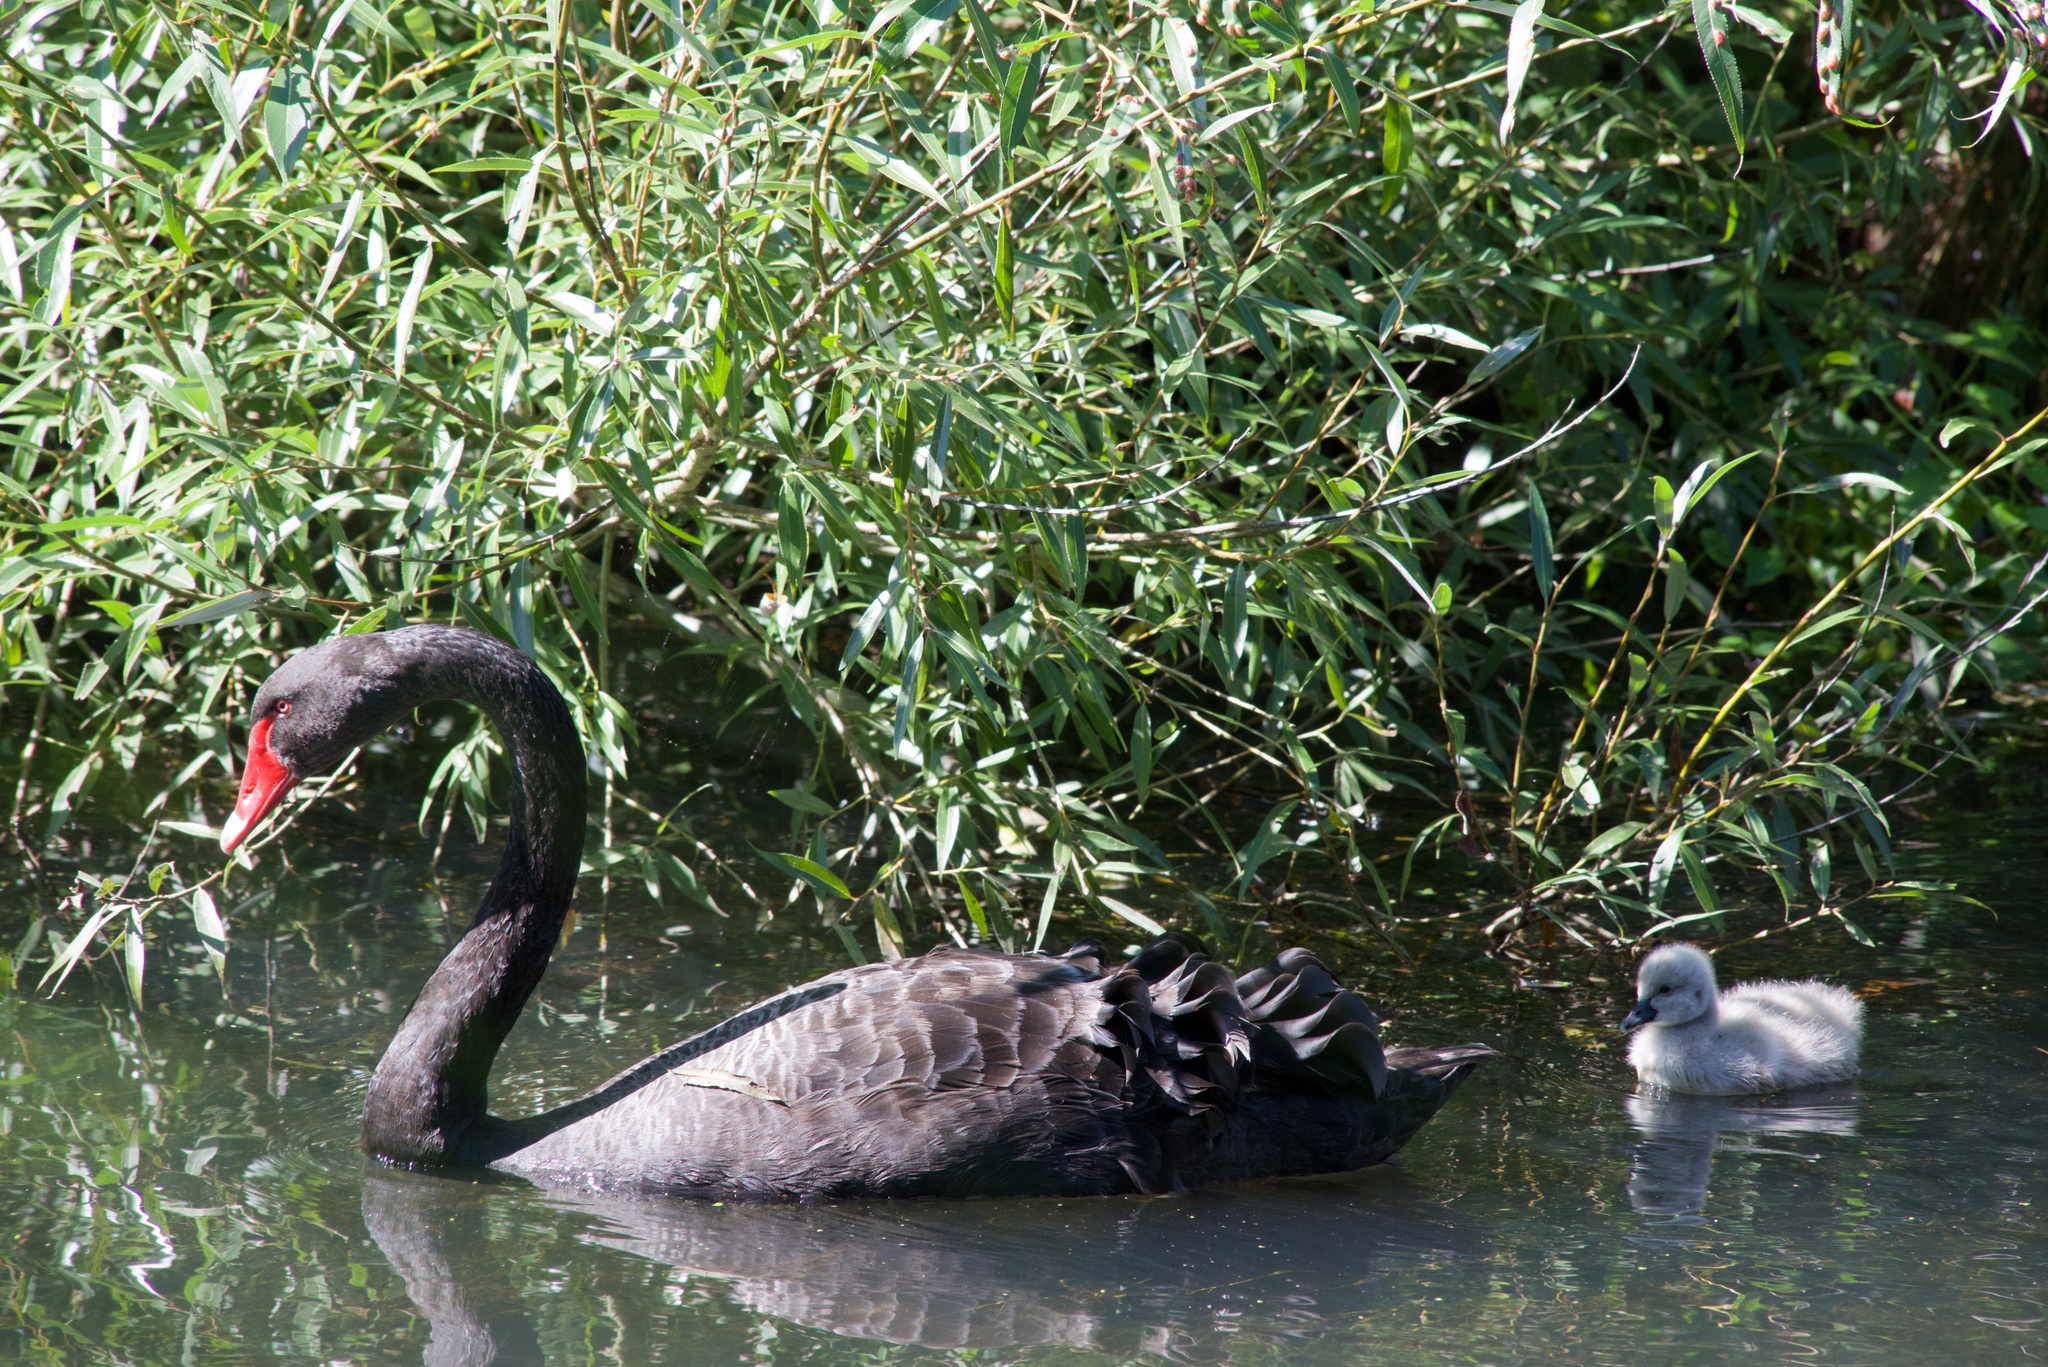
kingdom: Animalia
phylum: Chordata
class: Aves
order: Anseriformes
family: Anatidae
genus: Cygnus
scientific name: Cygnus atratus
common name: Black swan
